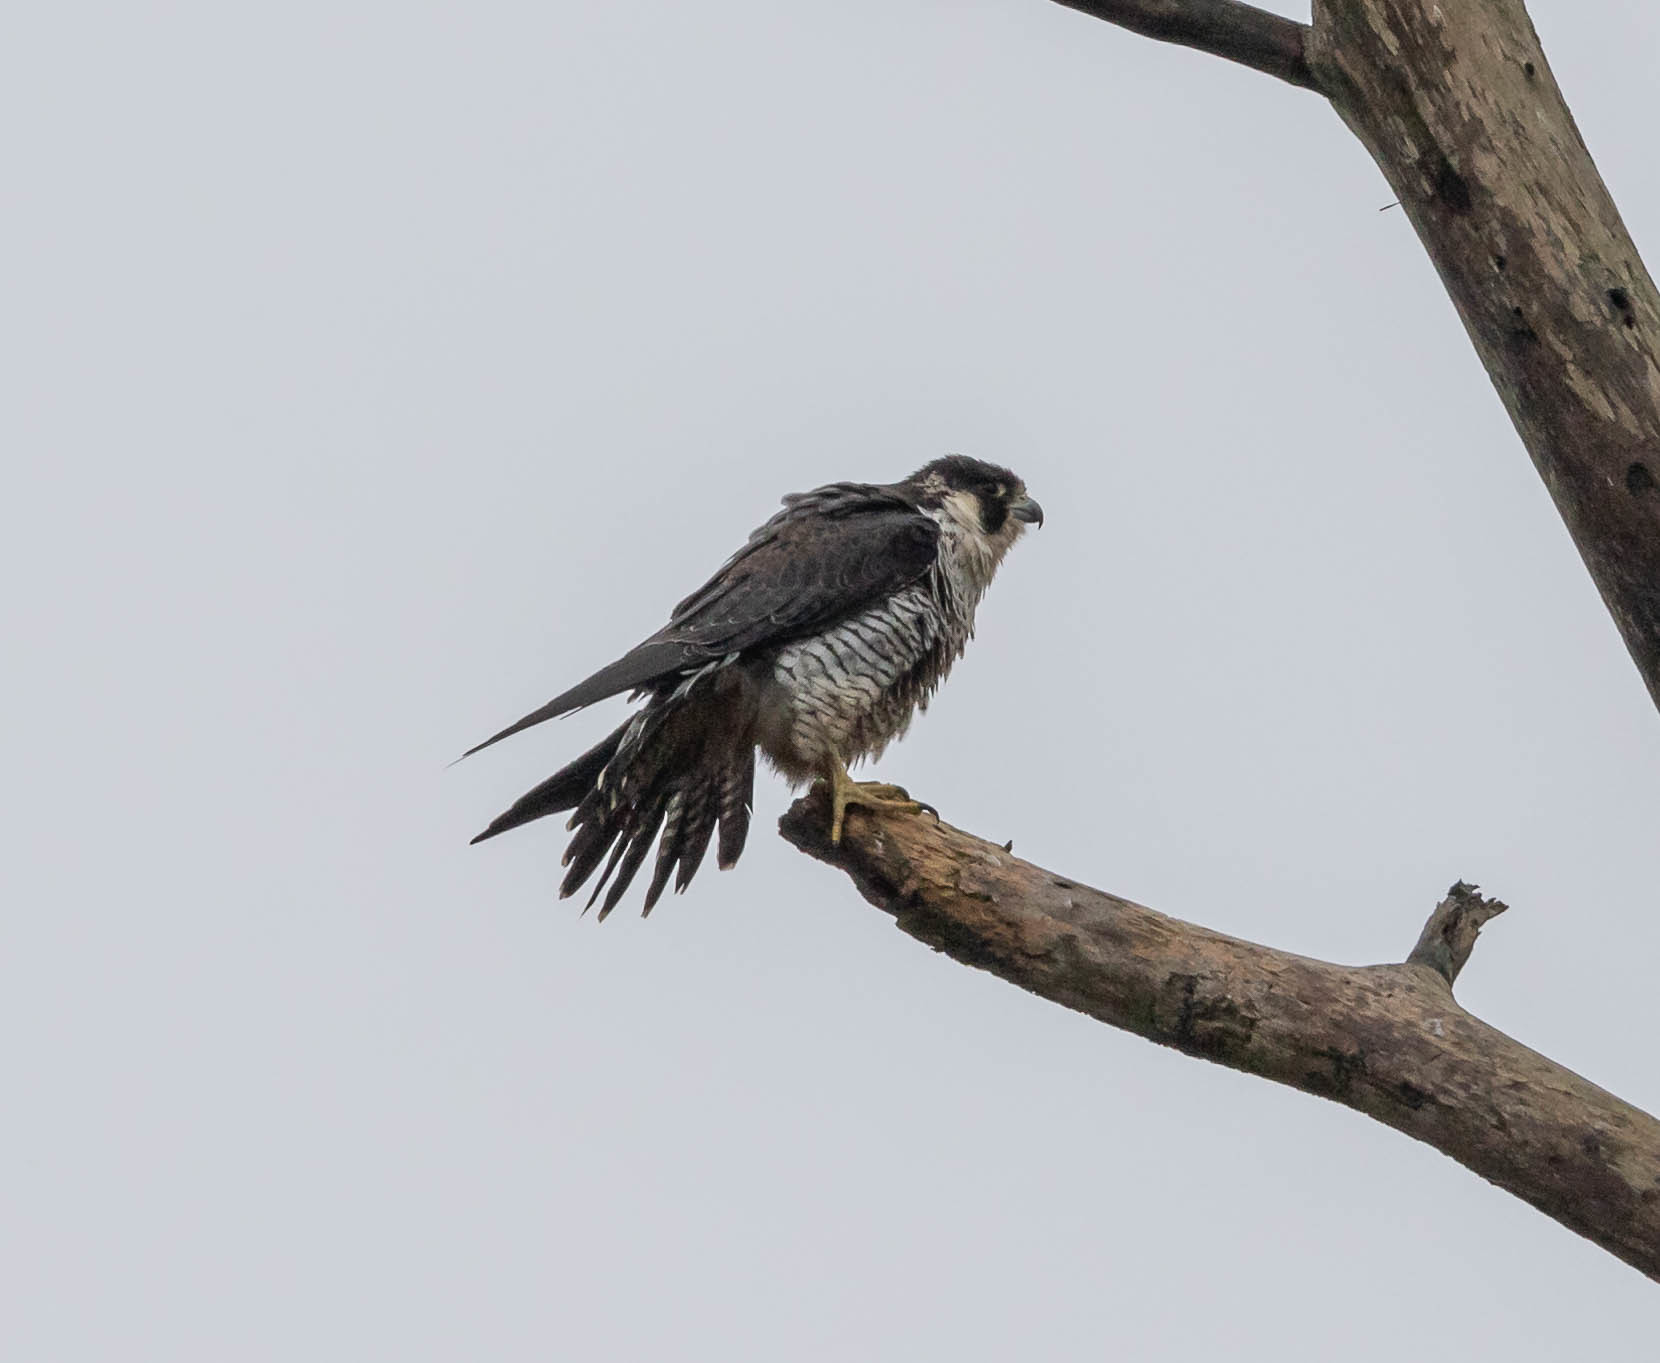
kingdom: Animalia
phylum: Chordata
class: Aves
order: Falconiformes
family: Falconidae
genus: Falco
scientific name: Falco peregrinus
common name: Peregrine falcon
